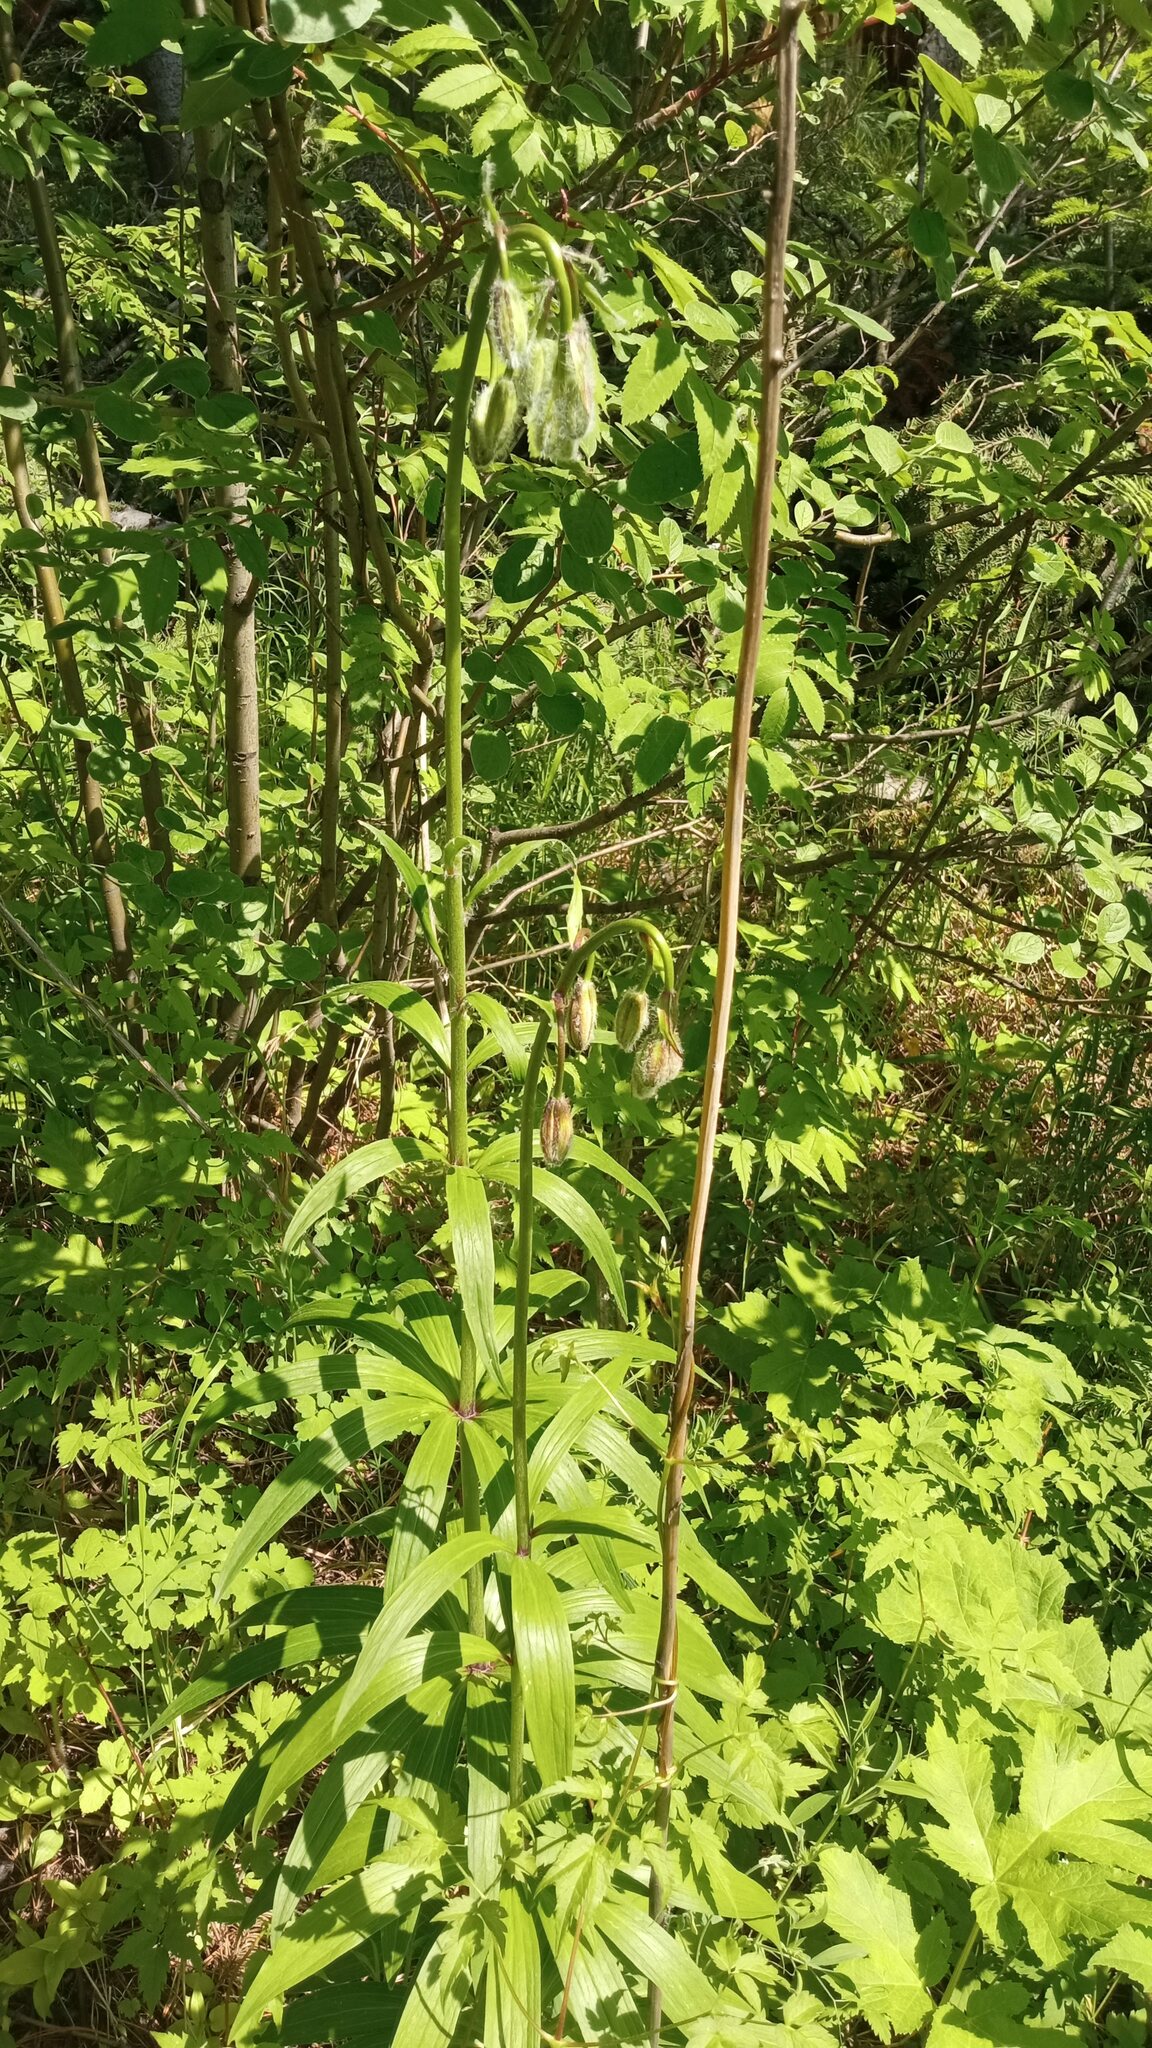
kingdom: Plantae
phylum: Tracheophyta
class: Liliopsida
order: Liliales
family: Liliaceae
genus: Lilium
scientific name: Lilium martagon
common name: Martagon lily
